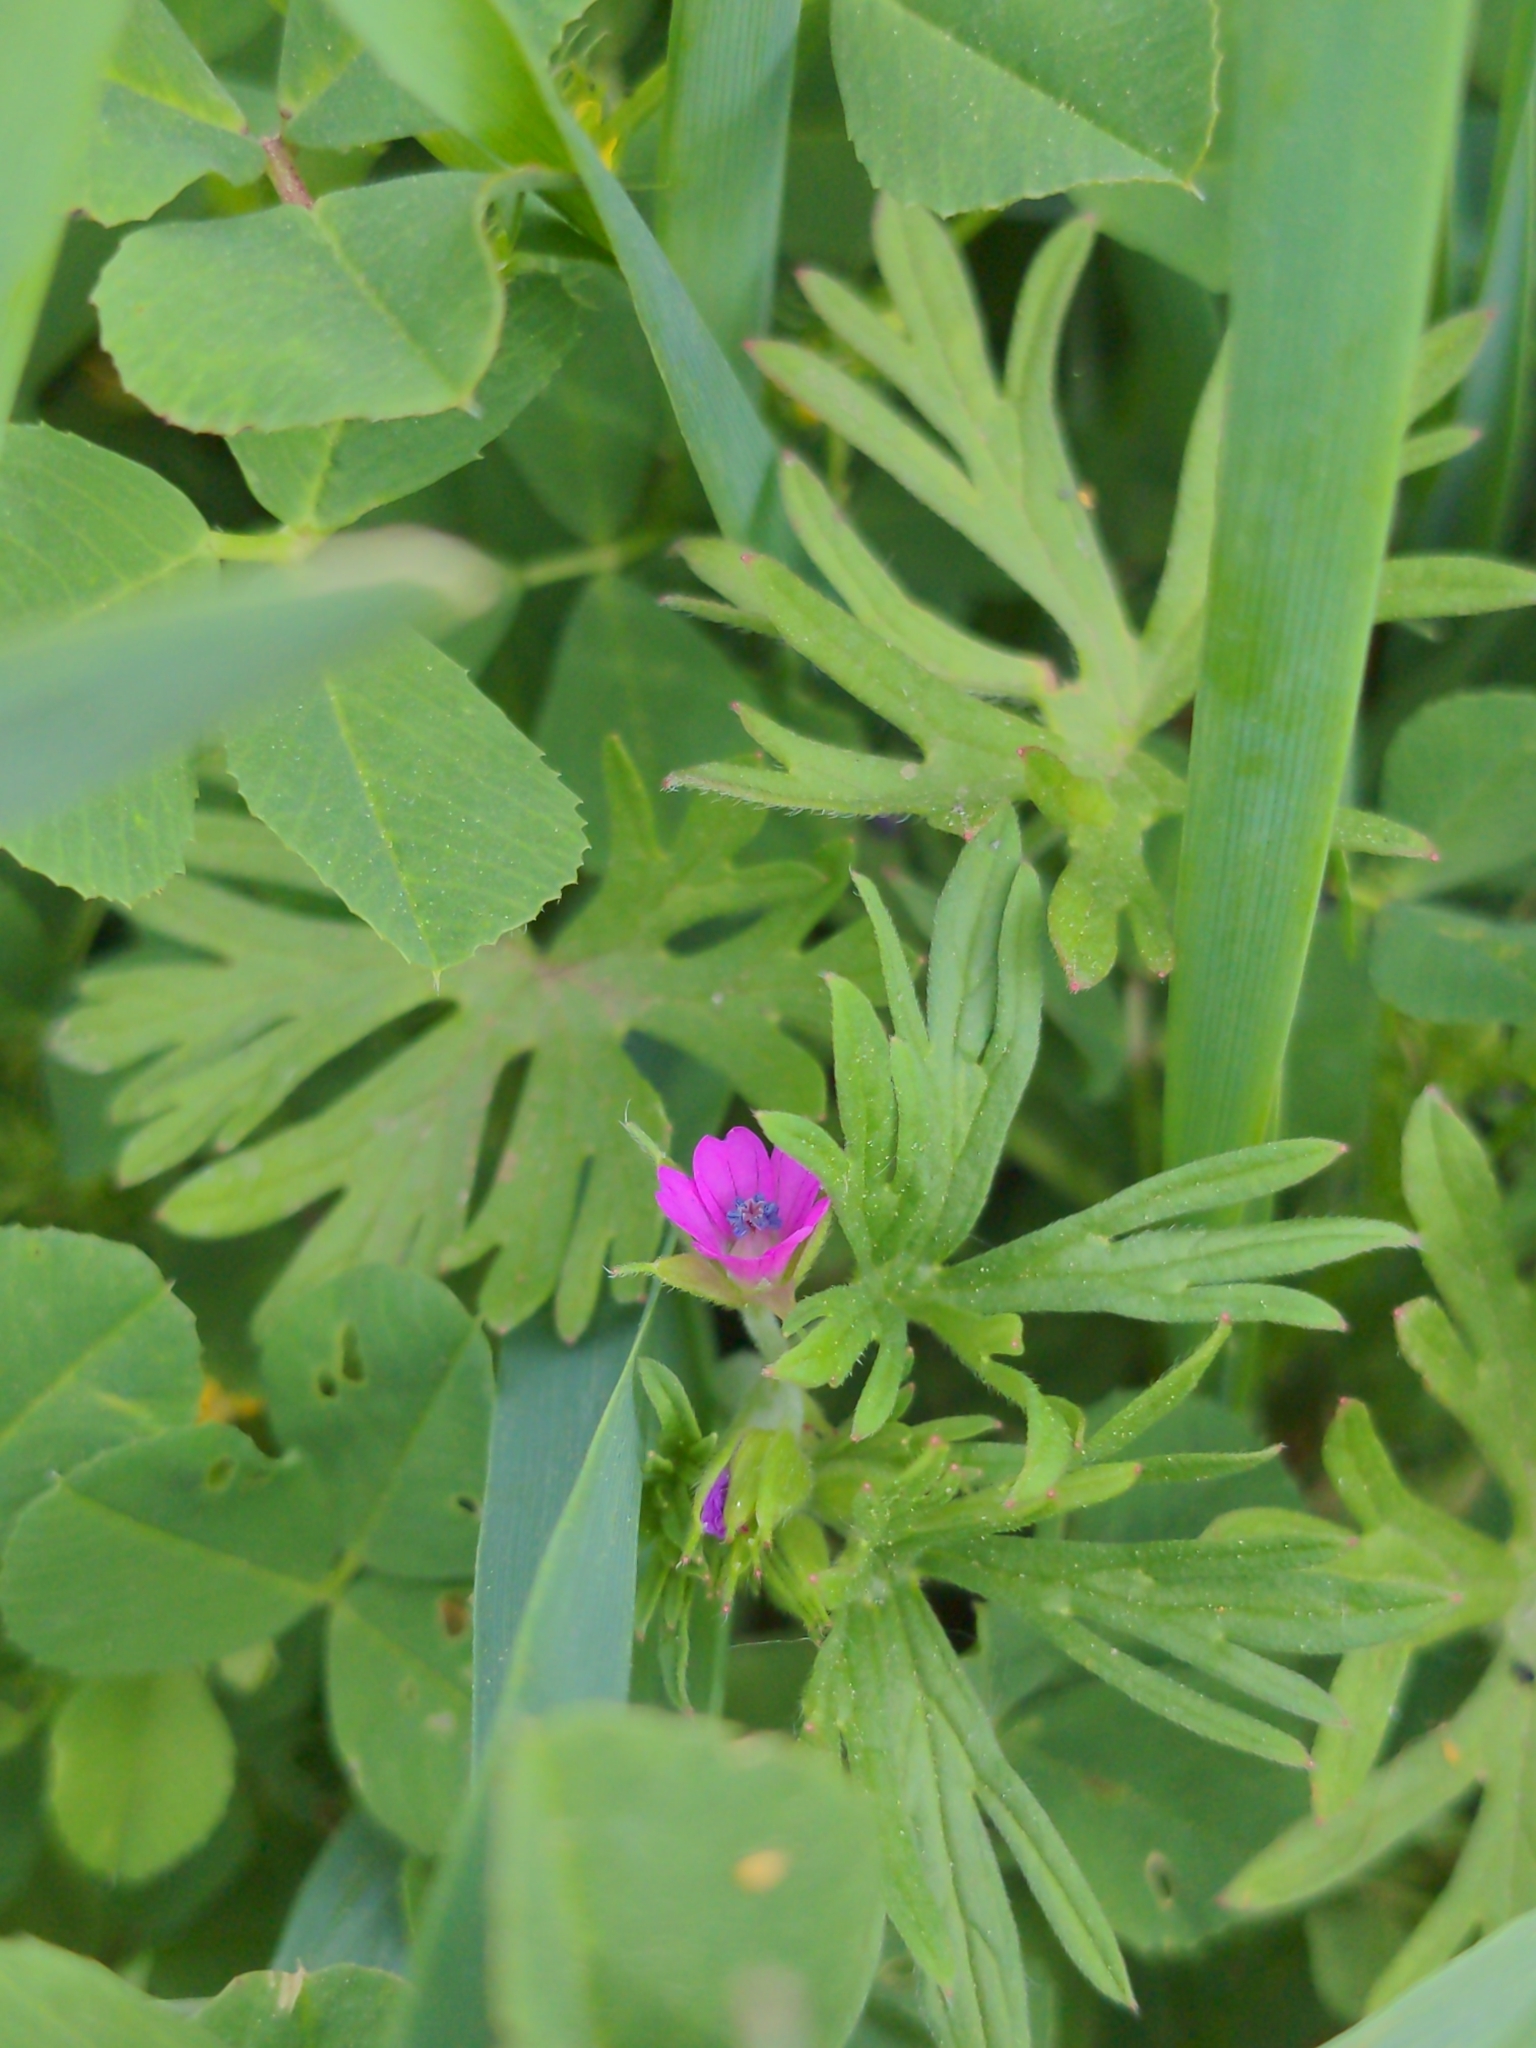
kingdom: Plantae
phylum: Tracheophyta
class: Magnoliopsida
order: Geraniales
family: Geraniaceae
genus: Geranium
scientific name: Geranium dissectum
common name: Cut-leaved crane's-bill
